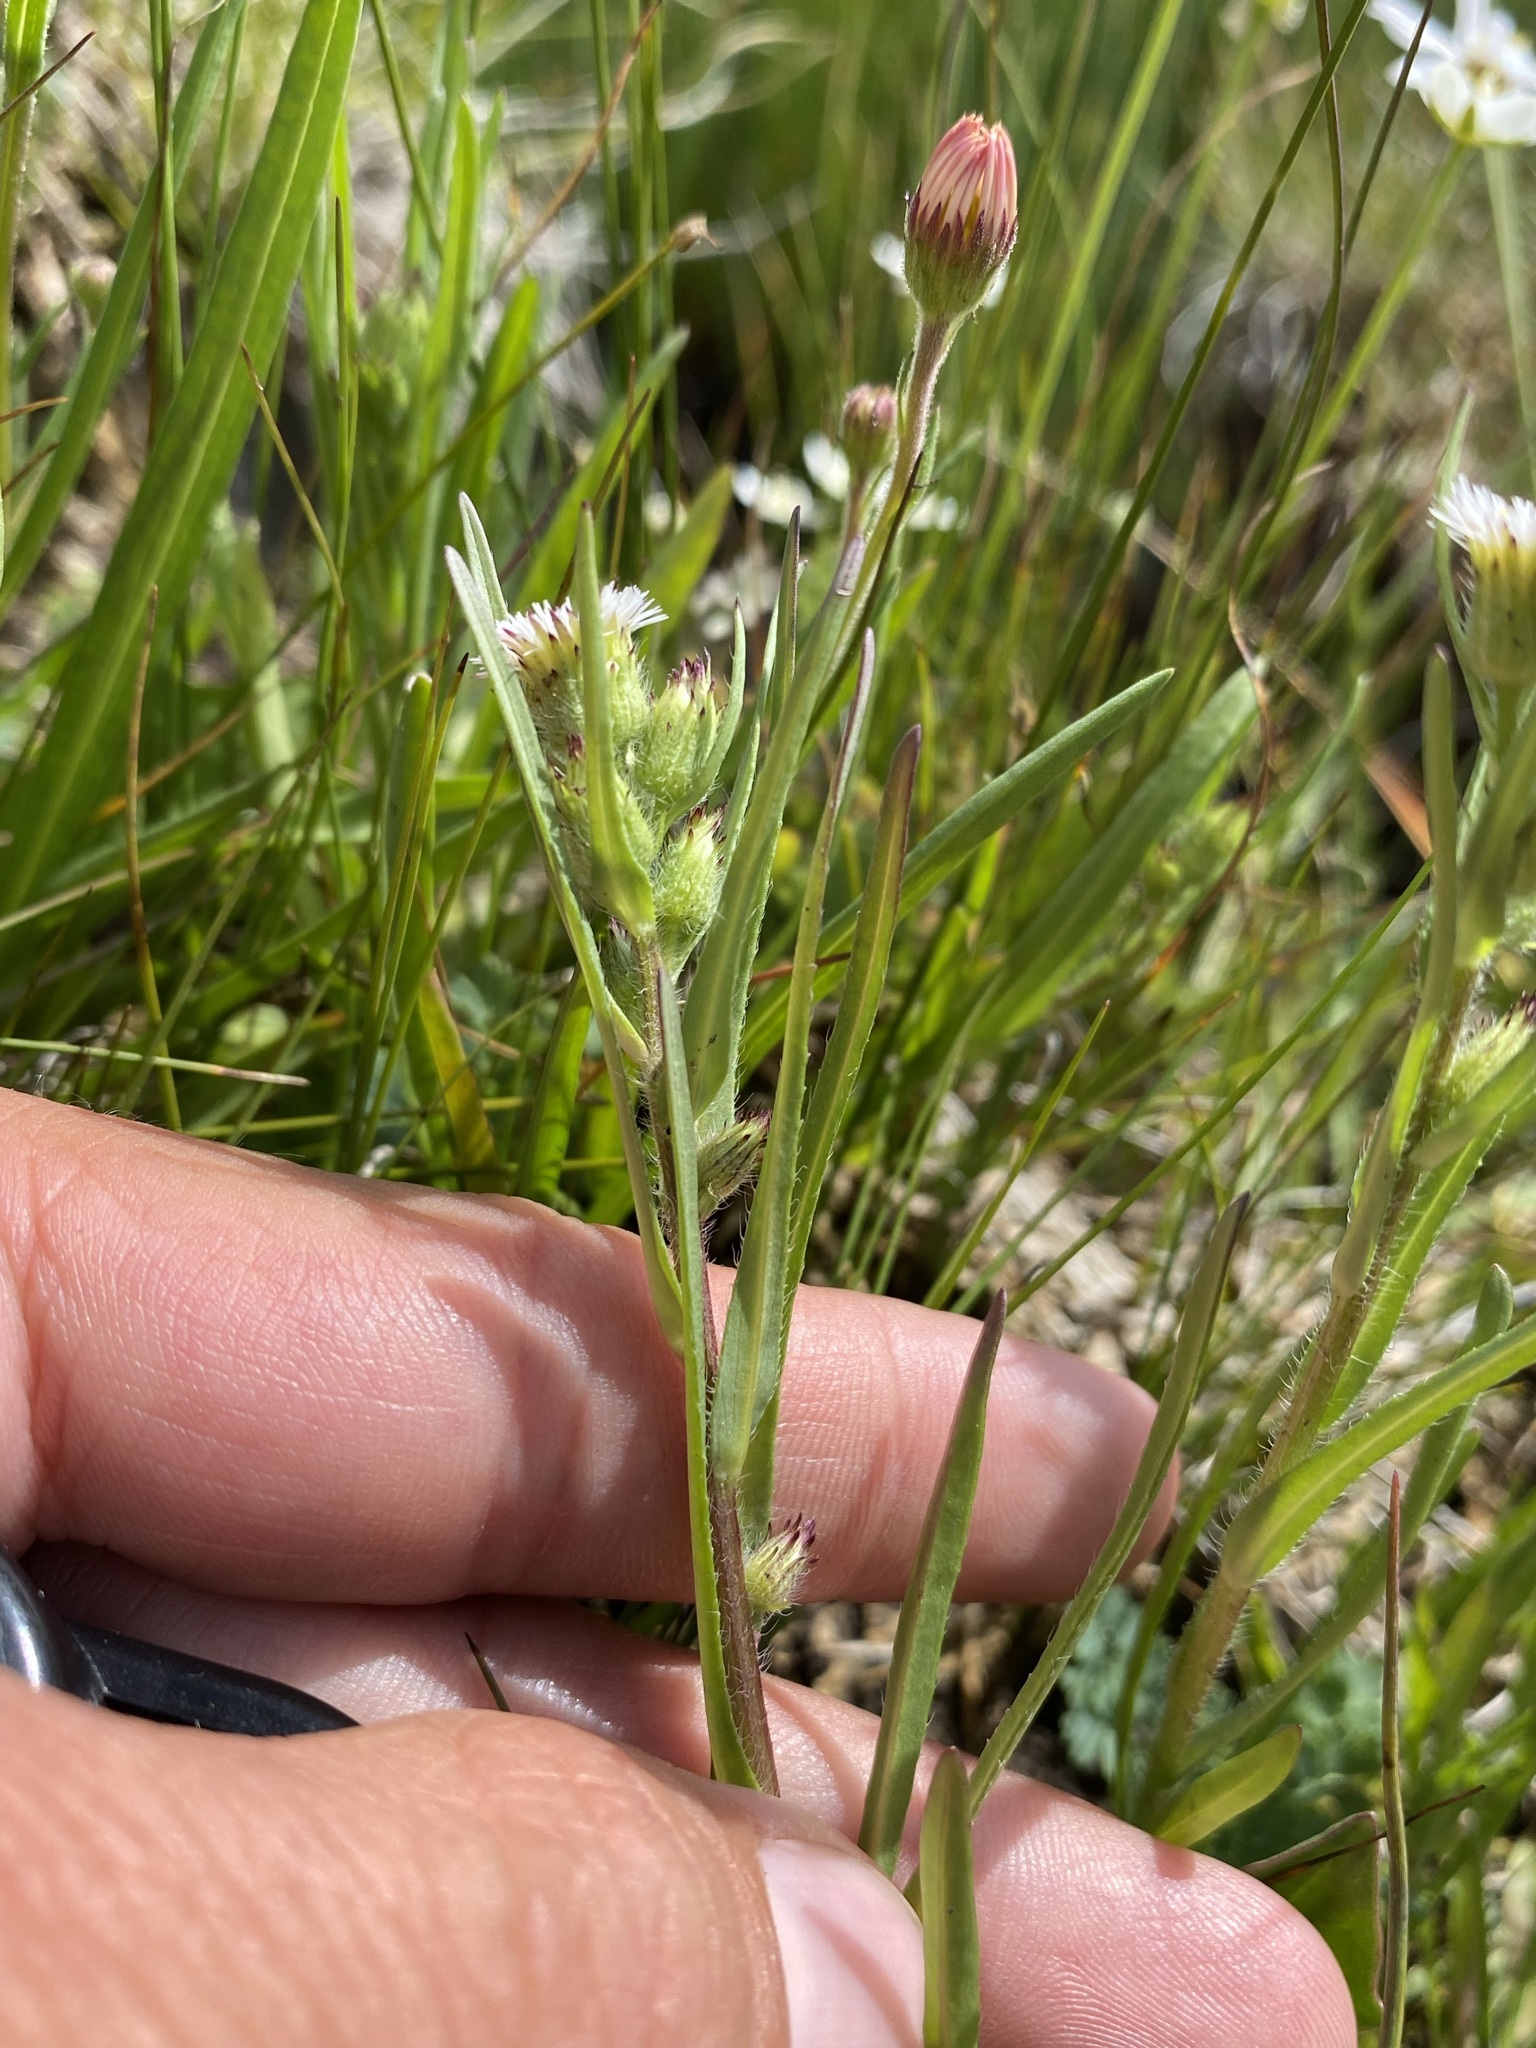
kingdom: Plantae
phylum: Tracheophyta
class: Magnoliopsida
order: Asterales
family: Asteraceae
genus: Erigeron
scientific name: Erigeron lonchophyllus
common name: Short-ray fleabane
